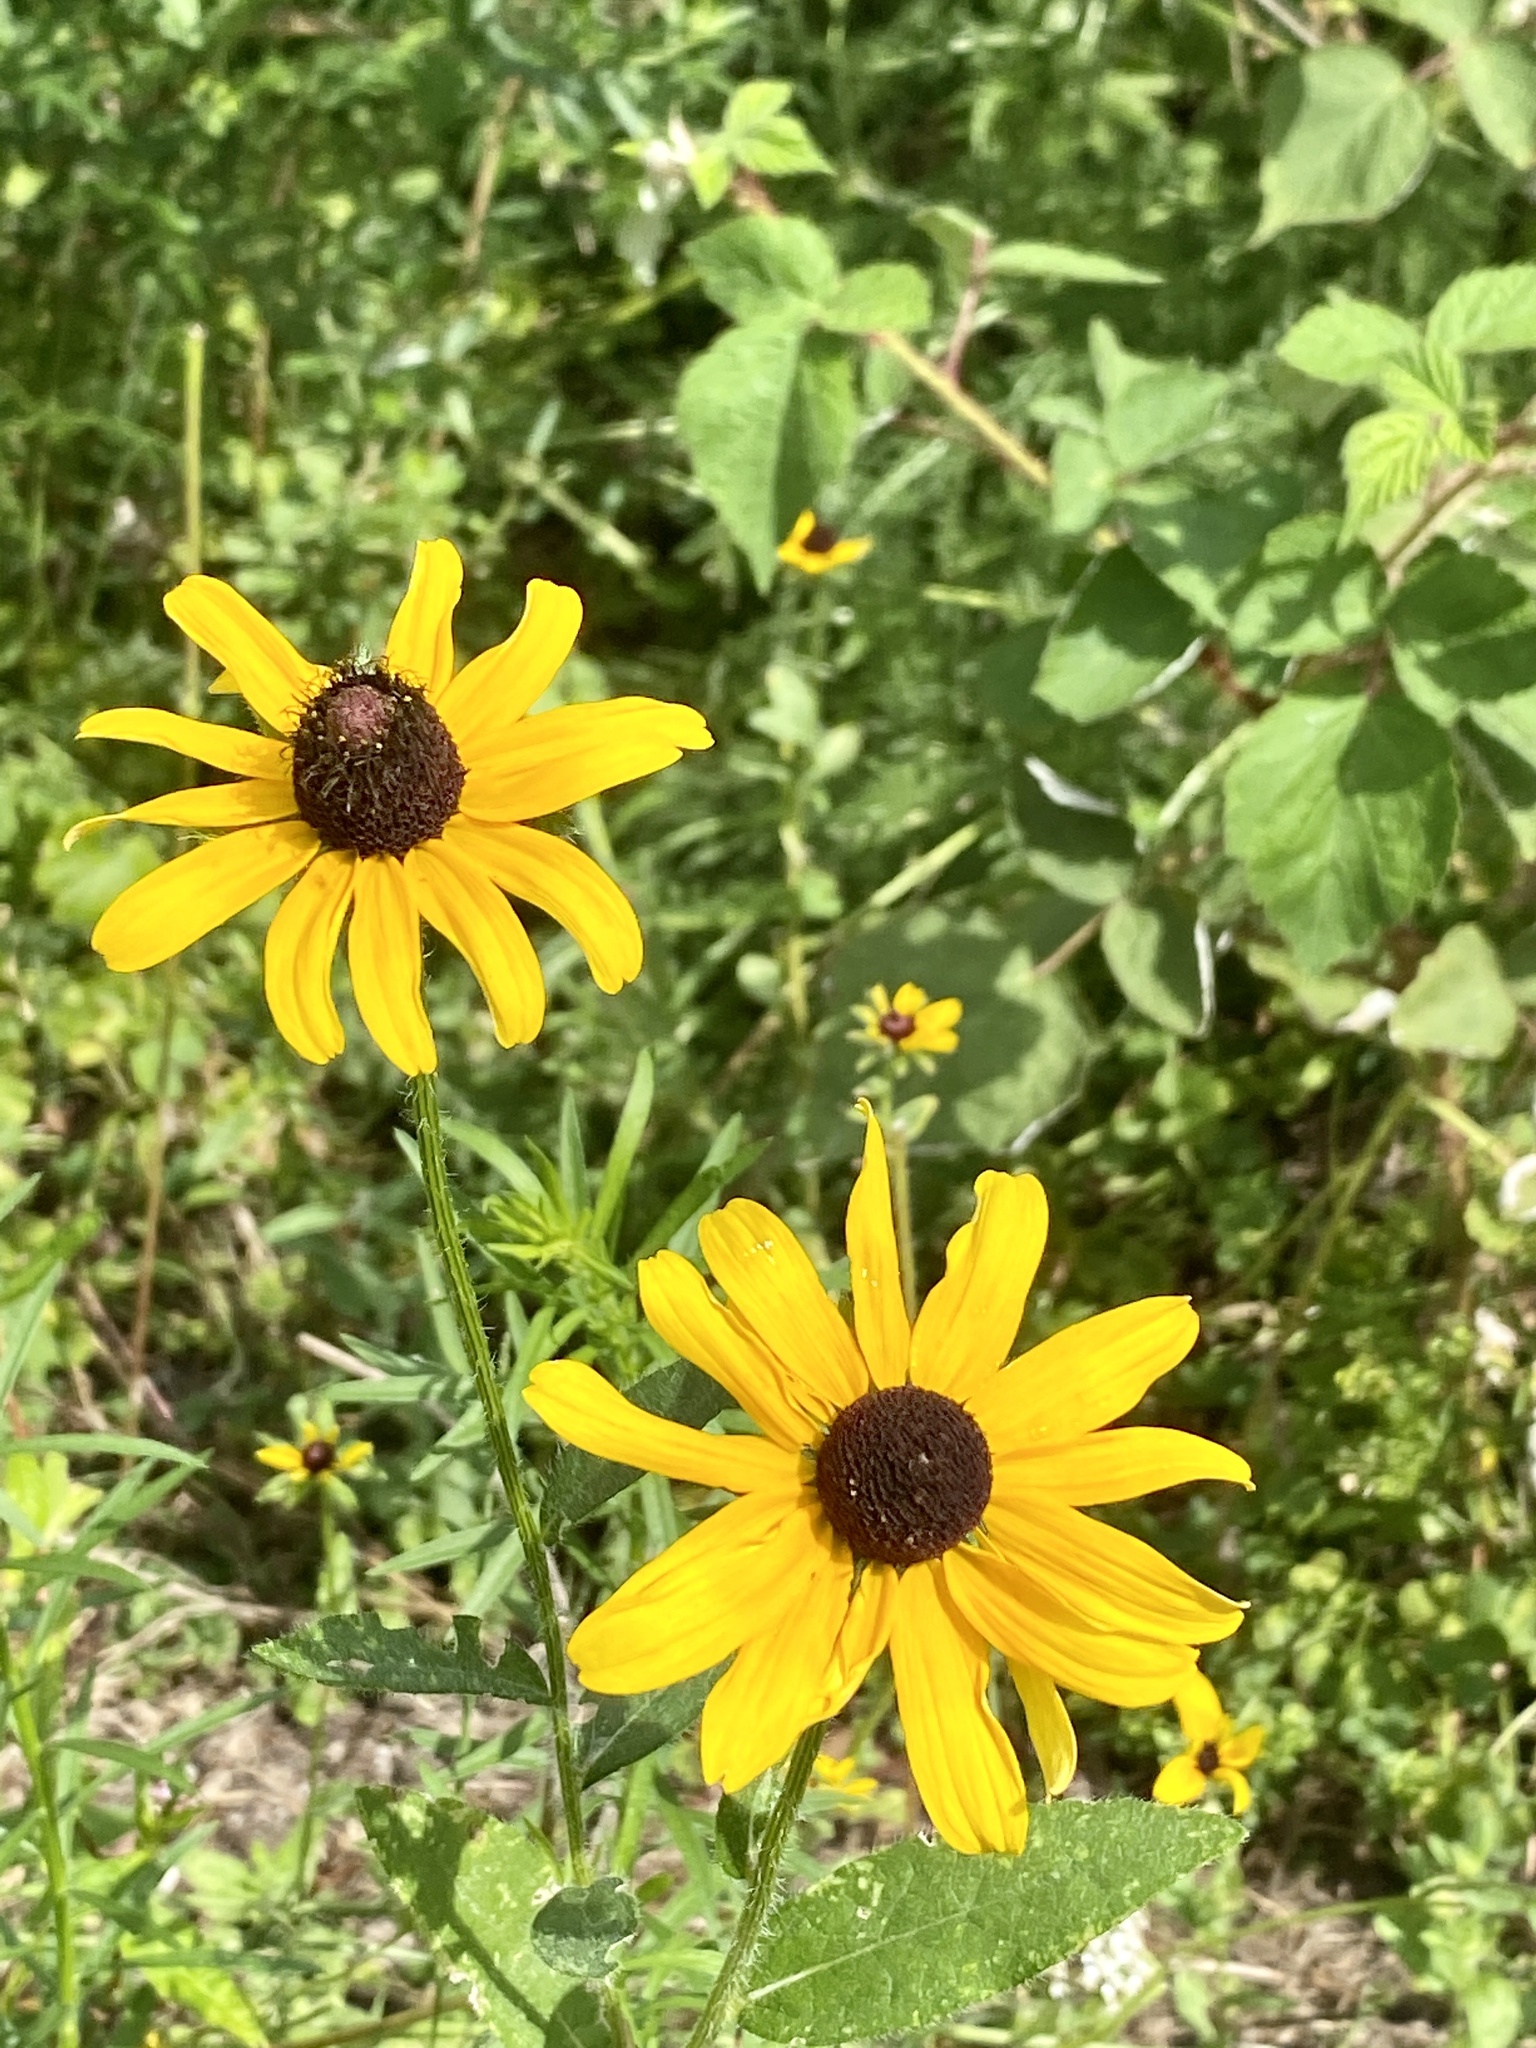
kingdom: Plantae
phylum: Tracheophyta
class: Magnoliopsida
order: Asterales
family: Asteraceae
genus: Rudbeckia
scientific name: Rudbeckia hirta
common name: Black-eyed-susan
